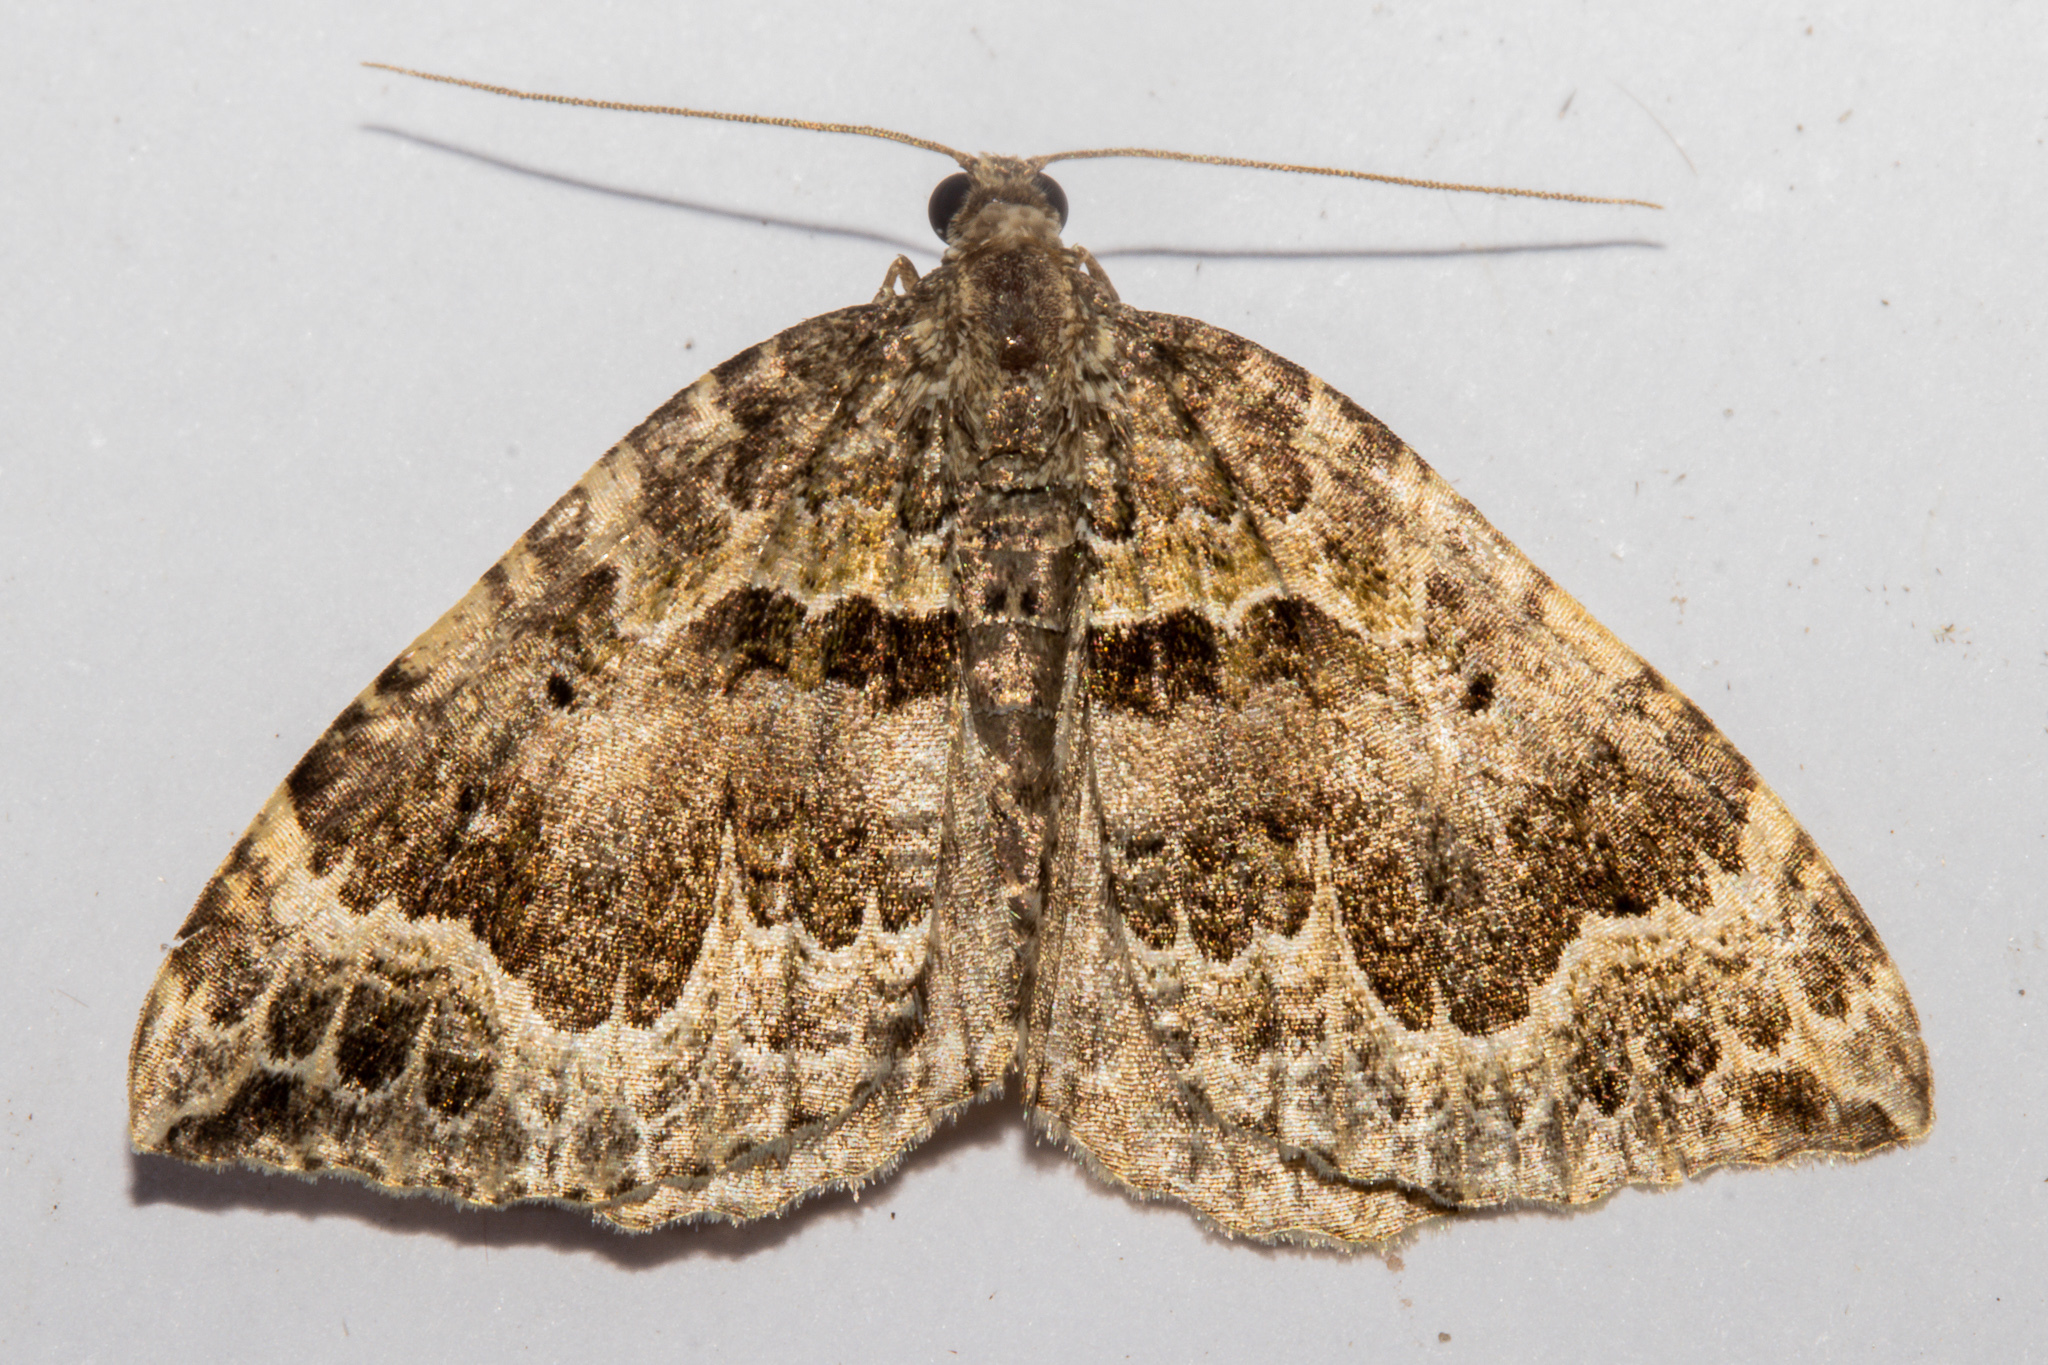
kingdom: Animalia
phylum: Arthropoda
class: Insecta
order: Lepidoptera
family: Geometridae
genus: Hydriomena
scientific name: Hydriomena rixata
